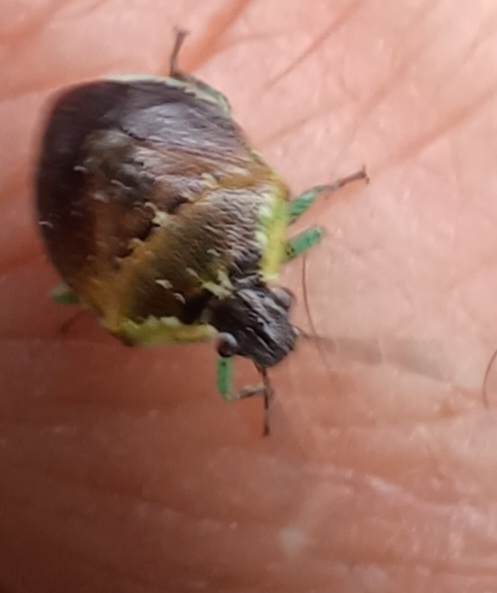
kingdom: Animalia
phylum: Arthropoda
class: Insecta
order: Hemiptera
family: Pentatomidae
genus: Monteithiella
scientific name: Monteithiella
